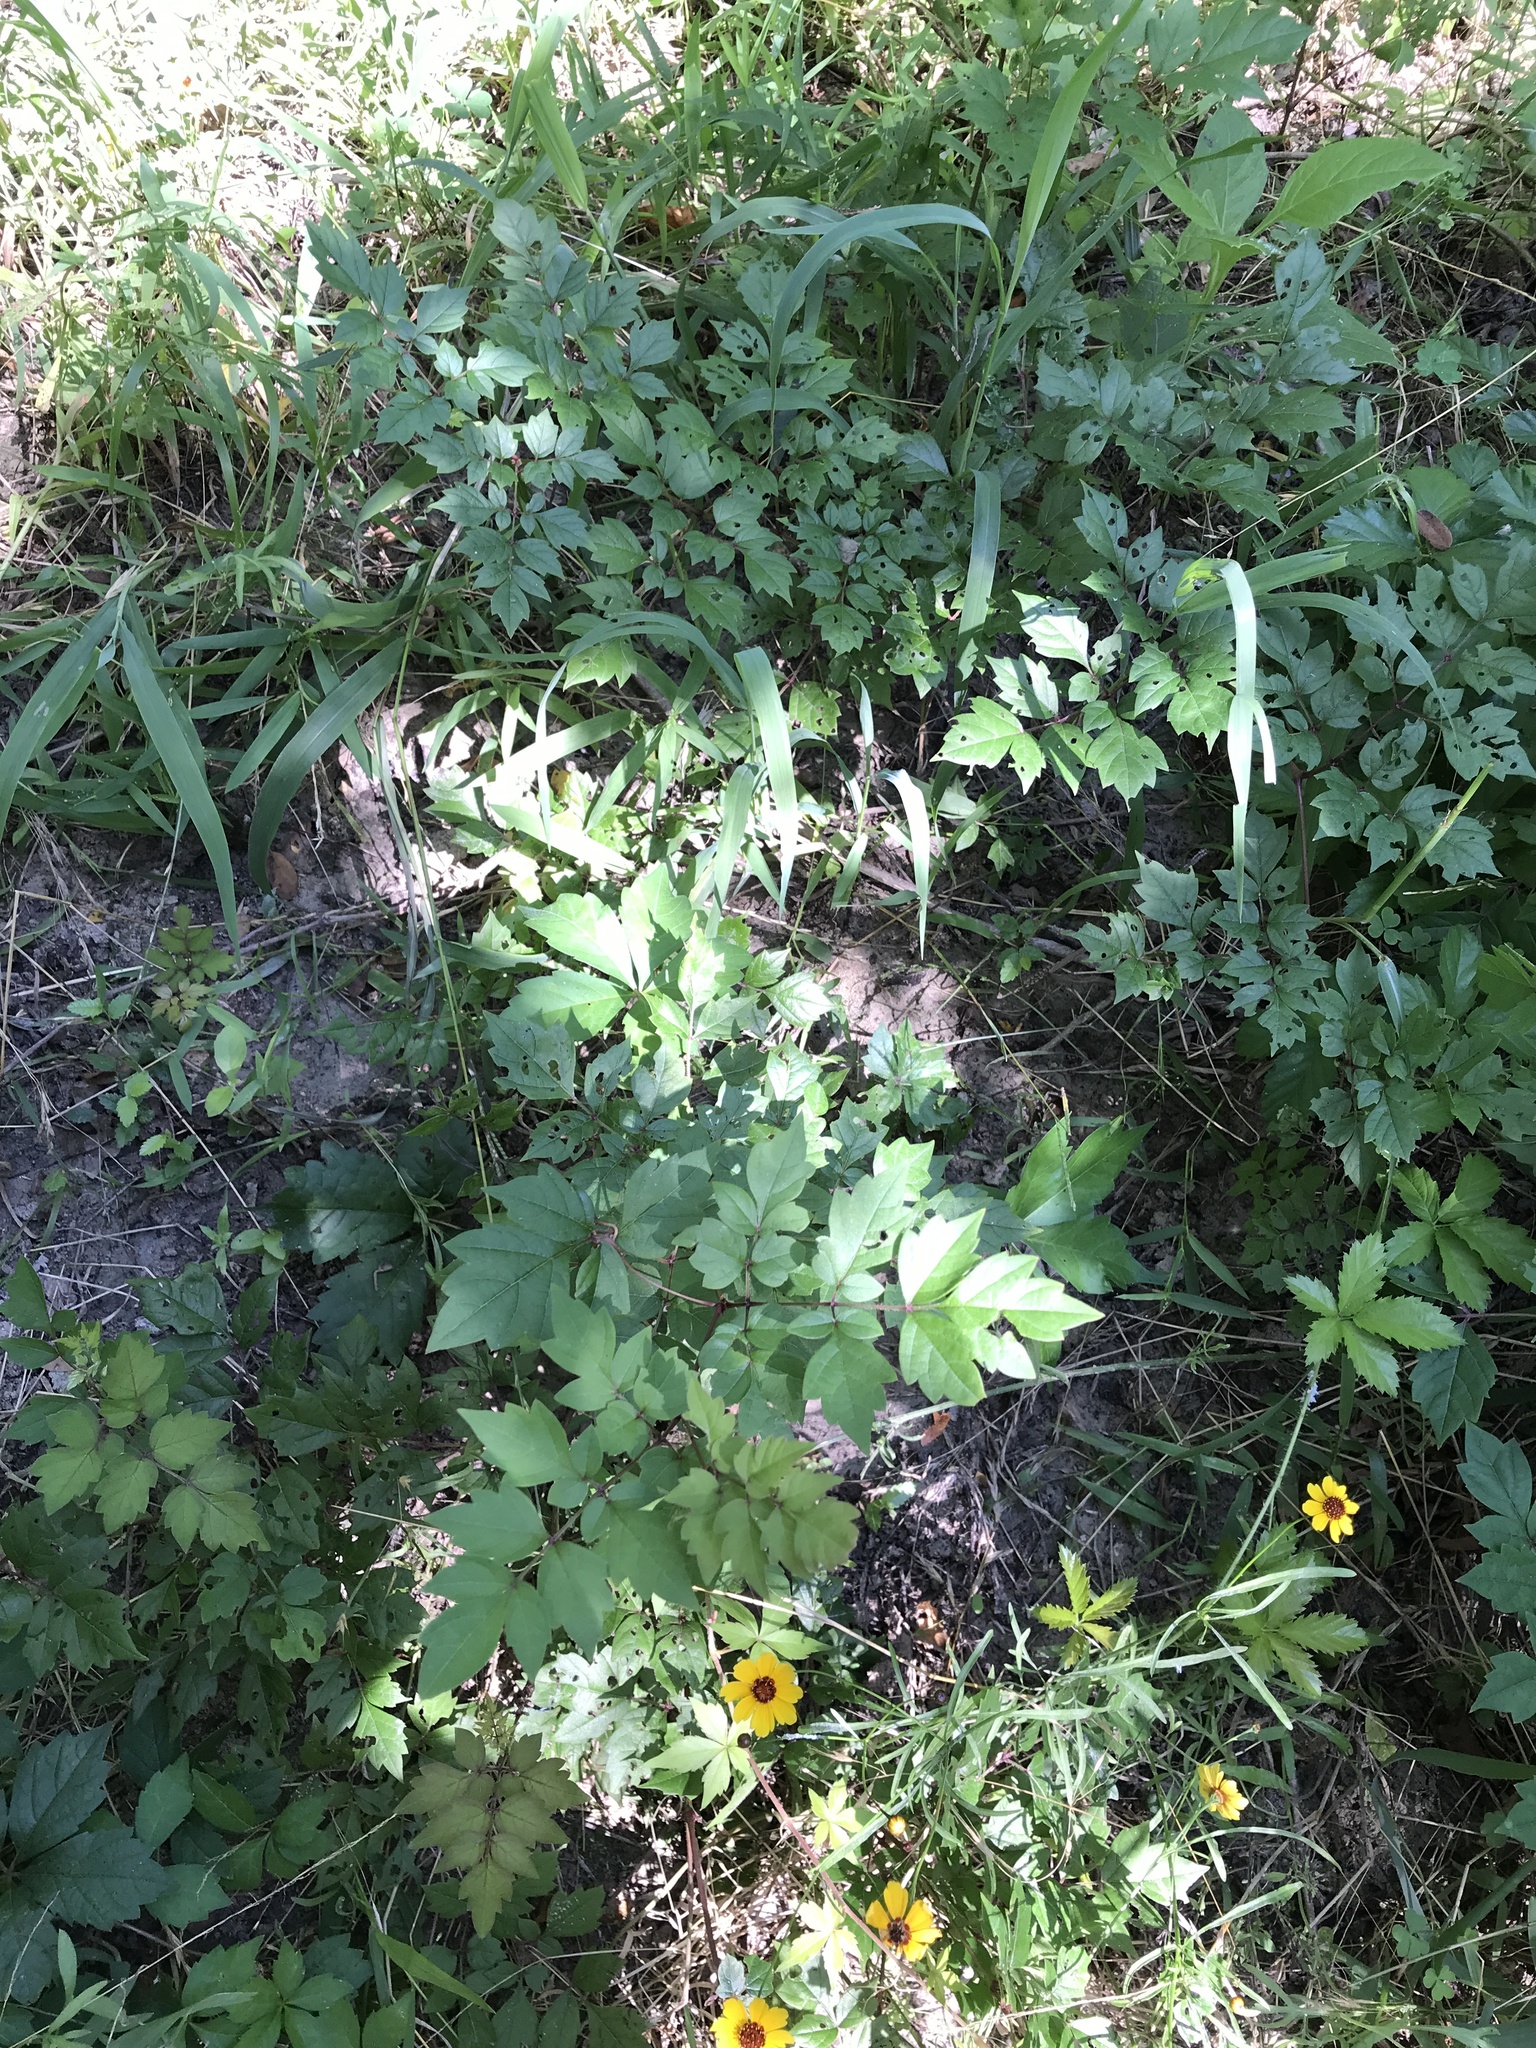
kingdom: Plantae
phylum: Tracheophyta
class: Magnoliopsida
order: Vitales
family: Vitaceae
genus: Nekemias
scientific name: Nekemias arborea
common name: Peppervine
